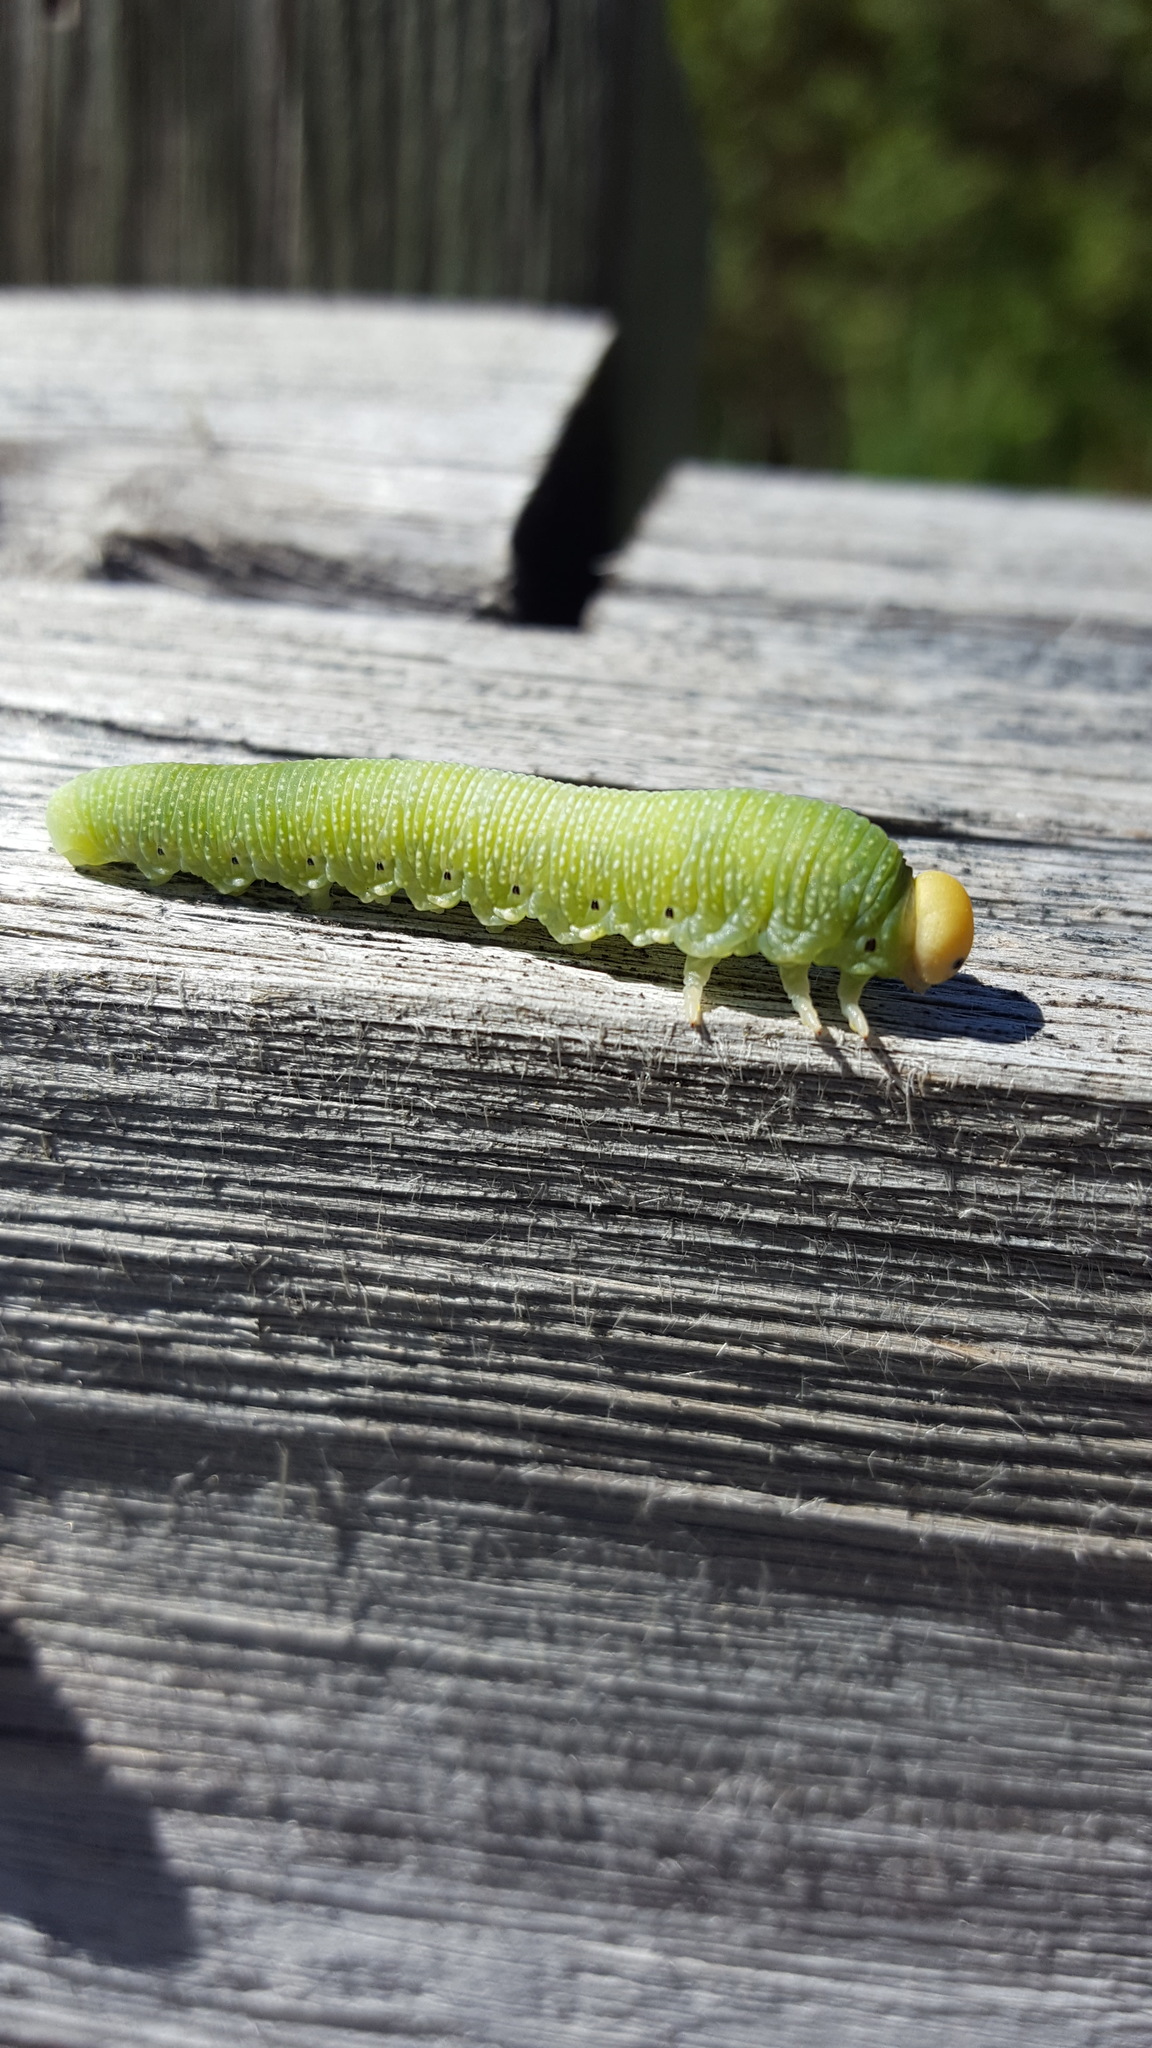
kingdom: Animalia
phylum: Arthropoda
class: Insecta
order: Hymenoptera
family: Cimbicidae
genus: Trichiosoma
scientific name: Trichiosoma triangulum
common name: Giant birch sawfly
